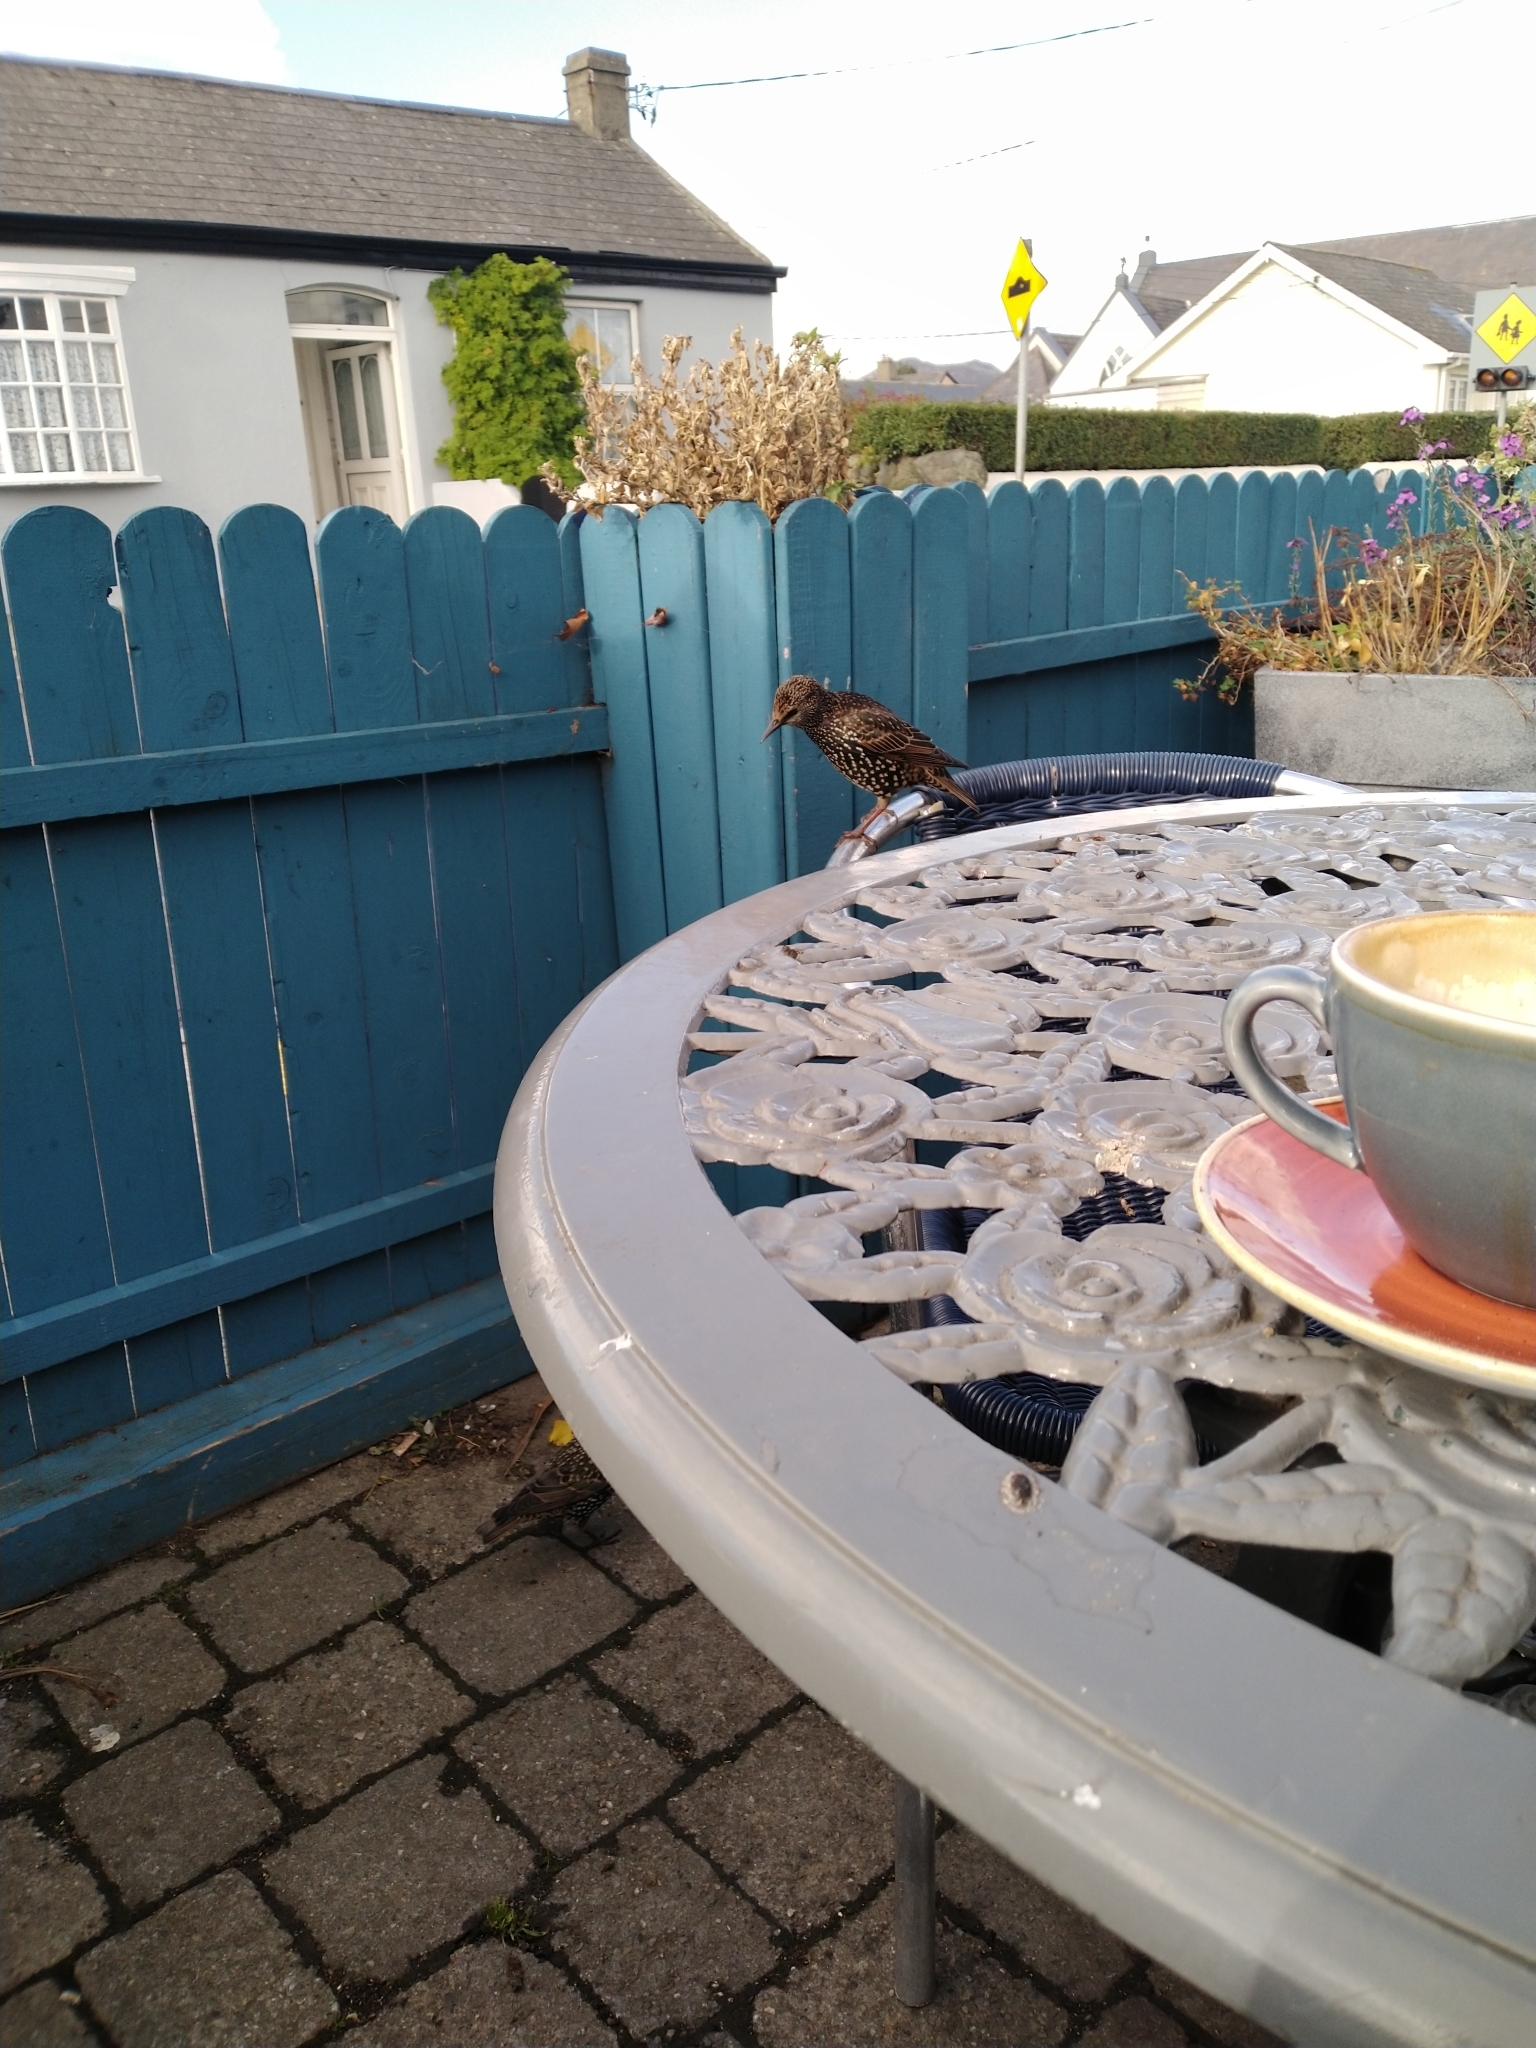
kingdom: Animalia
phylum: Chordata
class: Aves
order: Passeriformes
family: Sturnidae
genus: Sturnus
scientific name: Sturnus vulgaris
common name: Common starling
